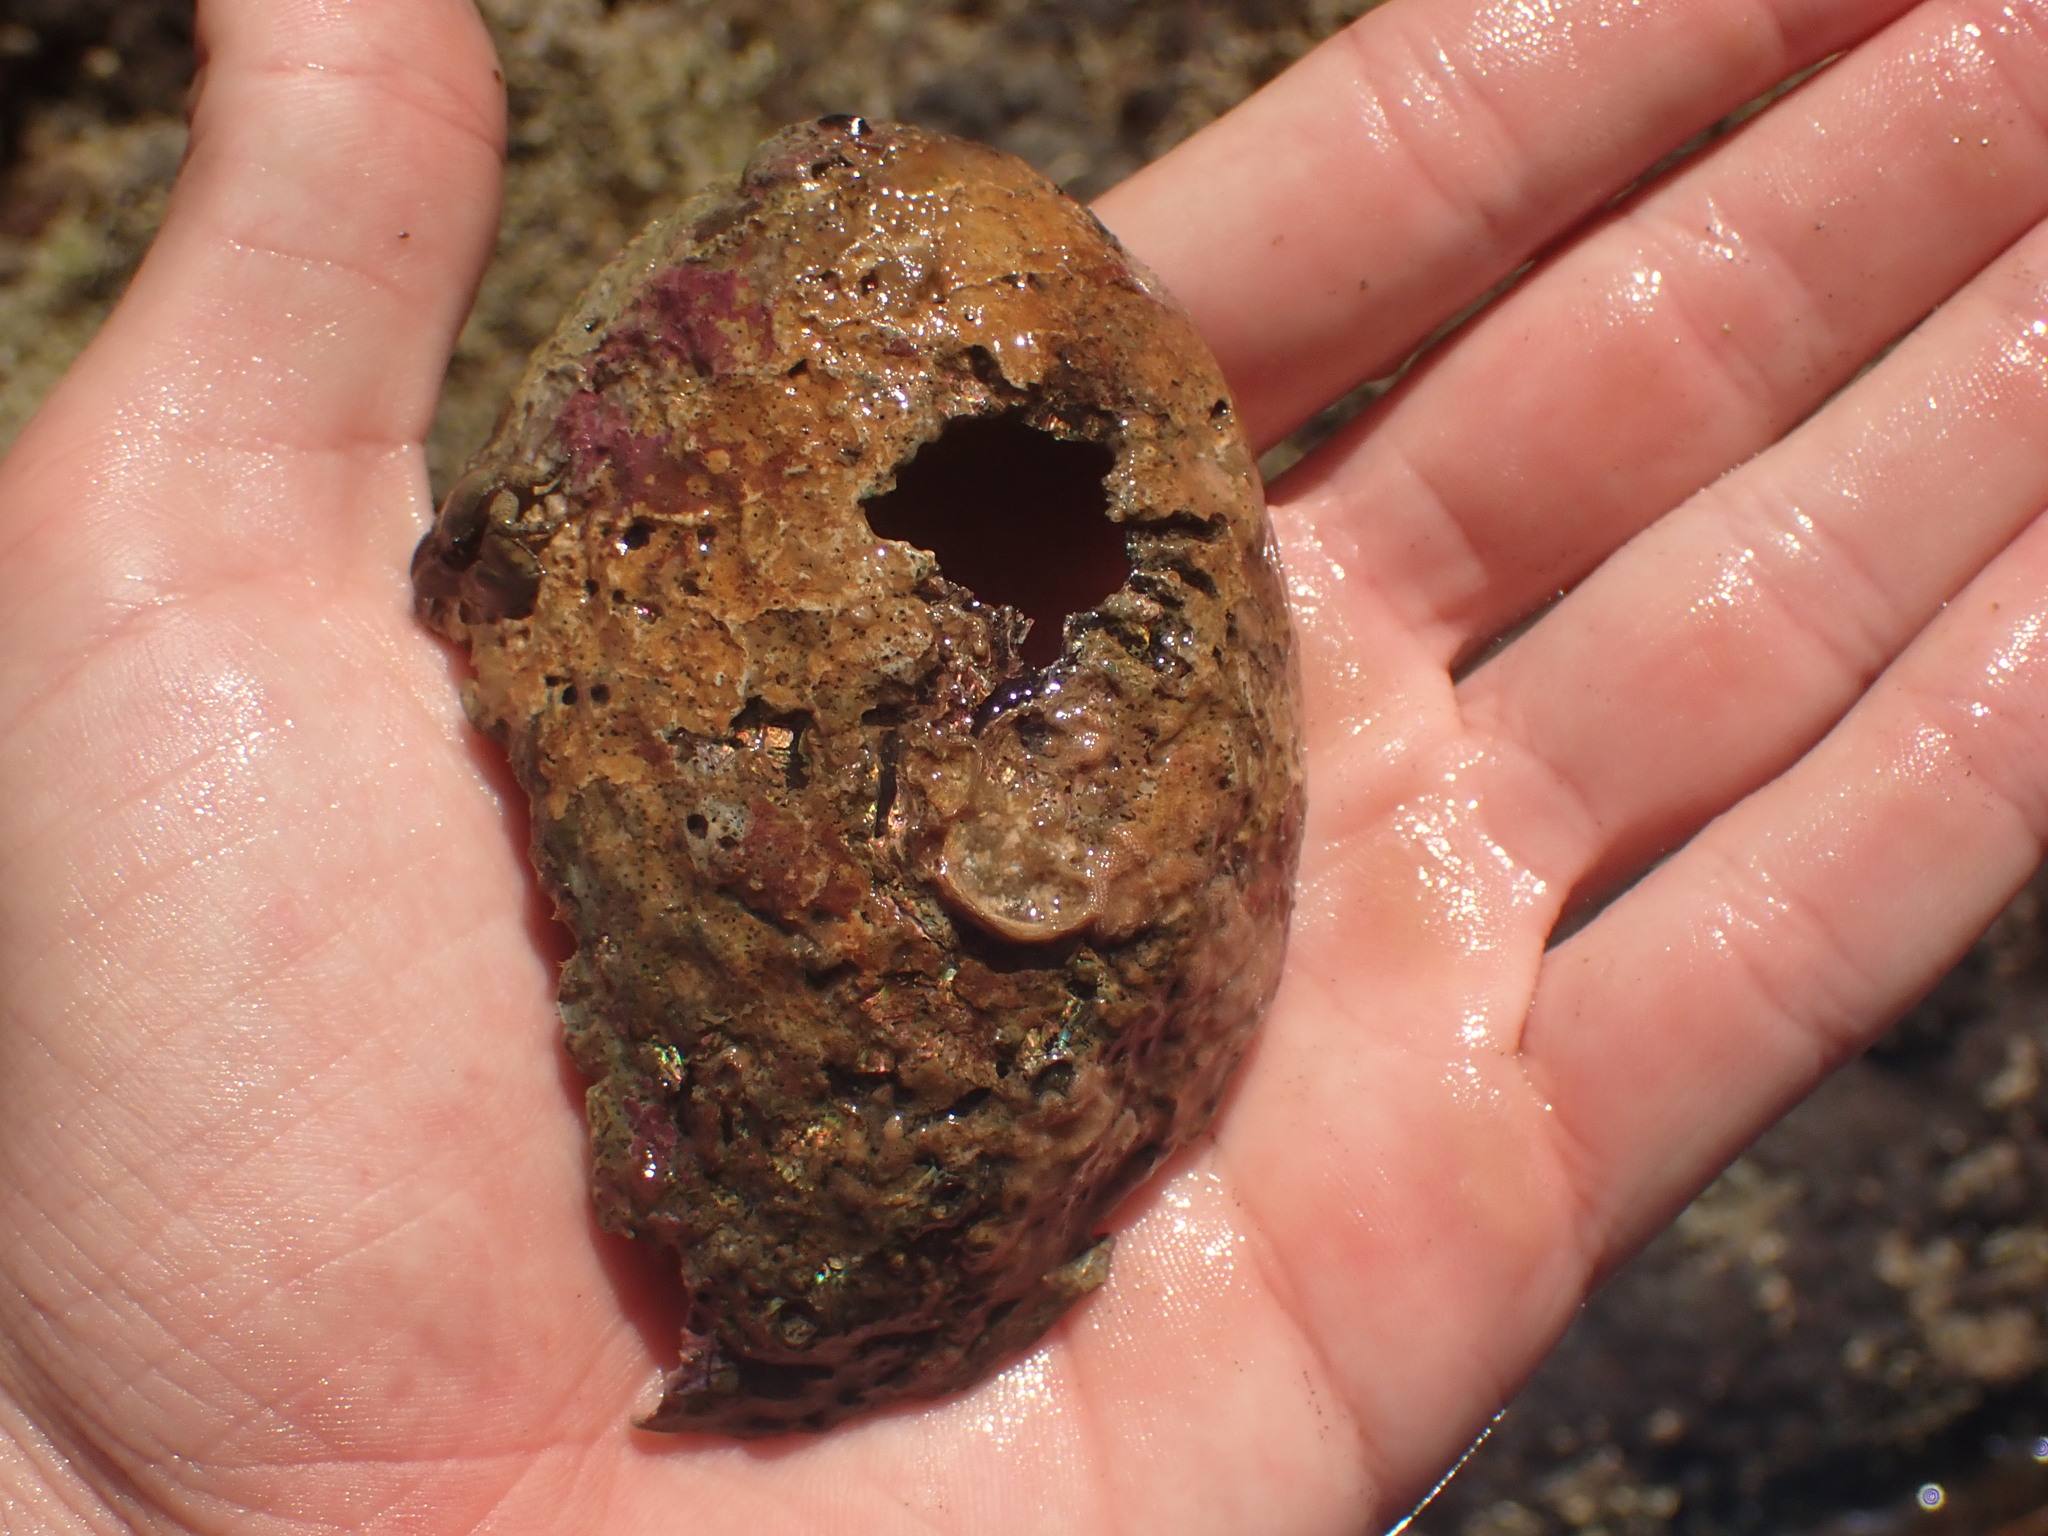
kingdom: Animalia
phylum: Mollusca
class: Gastropoda
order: Lepetellida
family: Haliotidae
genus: Haliotis
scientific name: Haliotis iris
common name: Abalone
